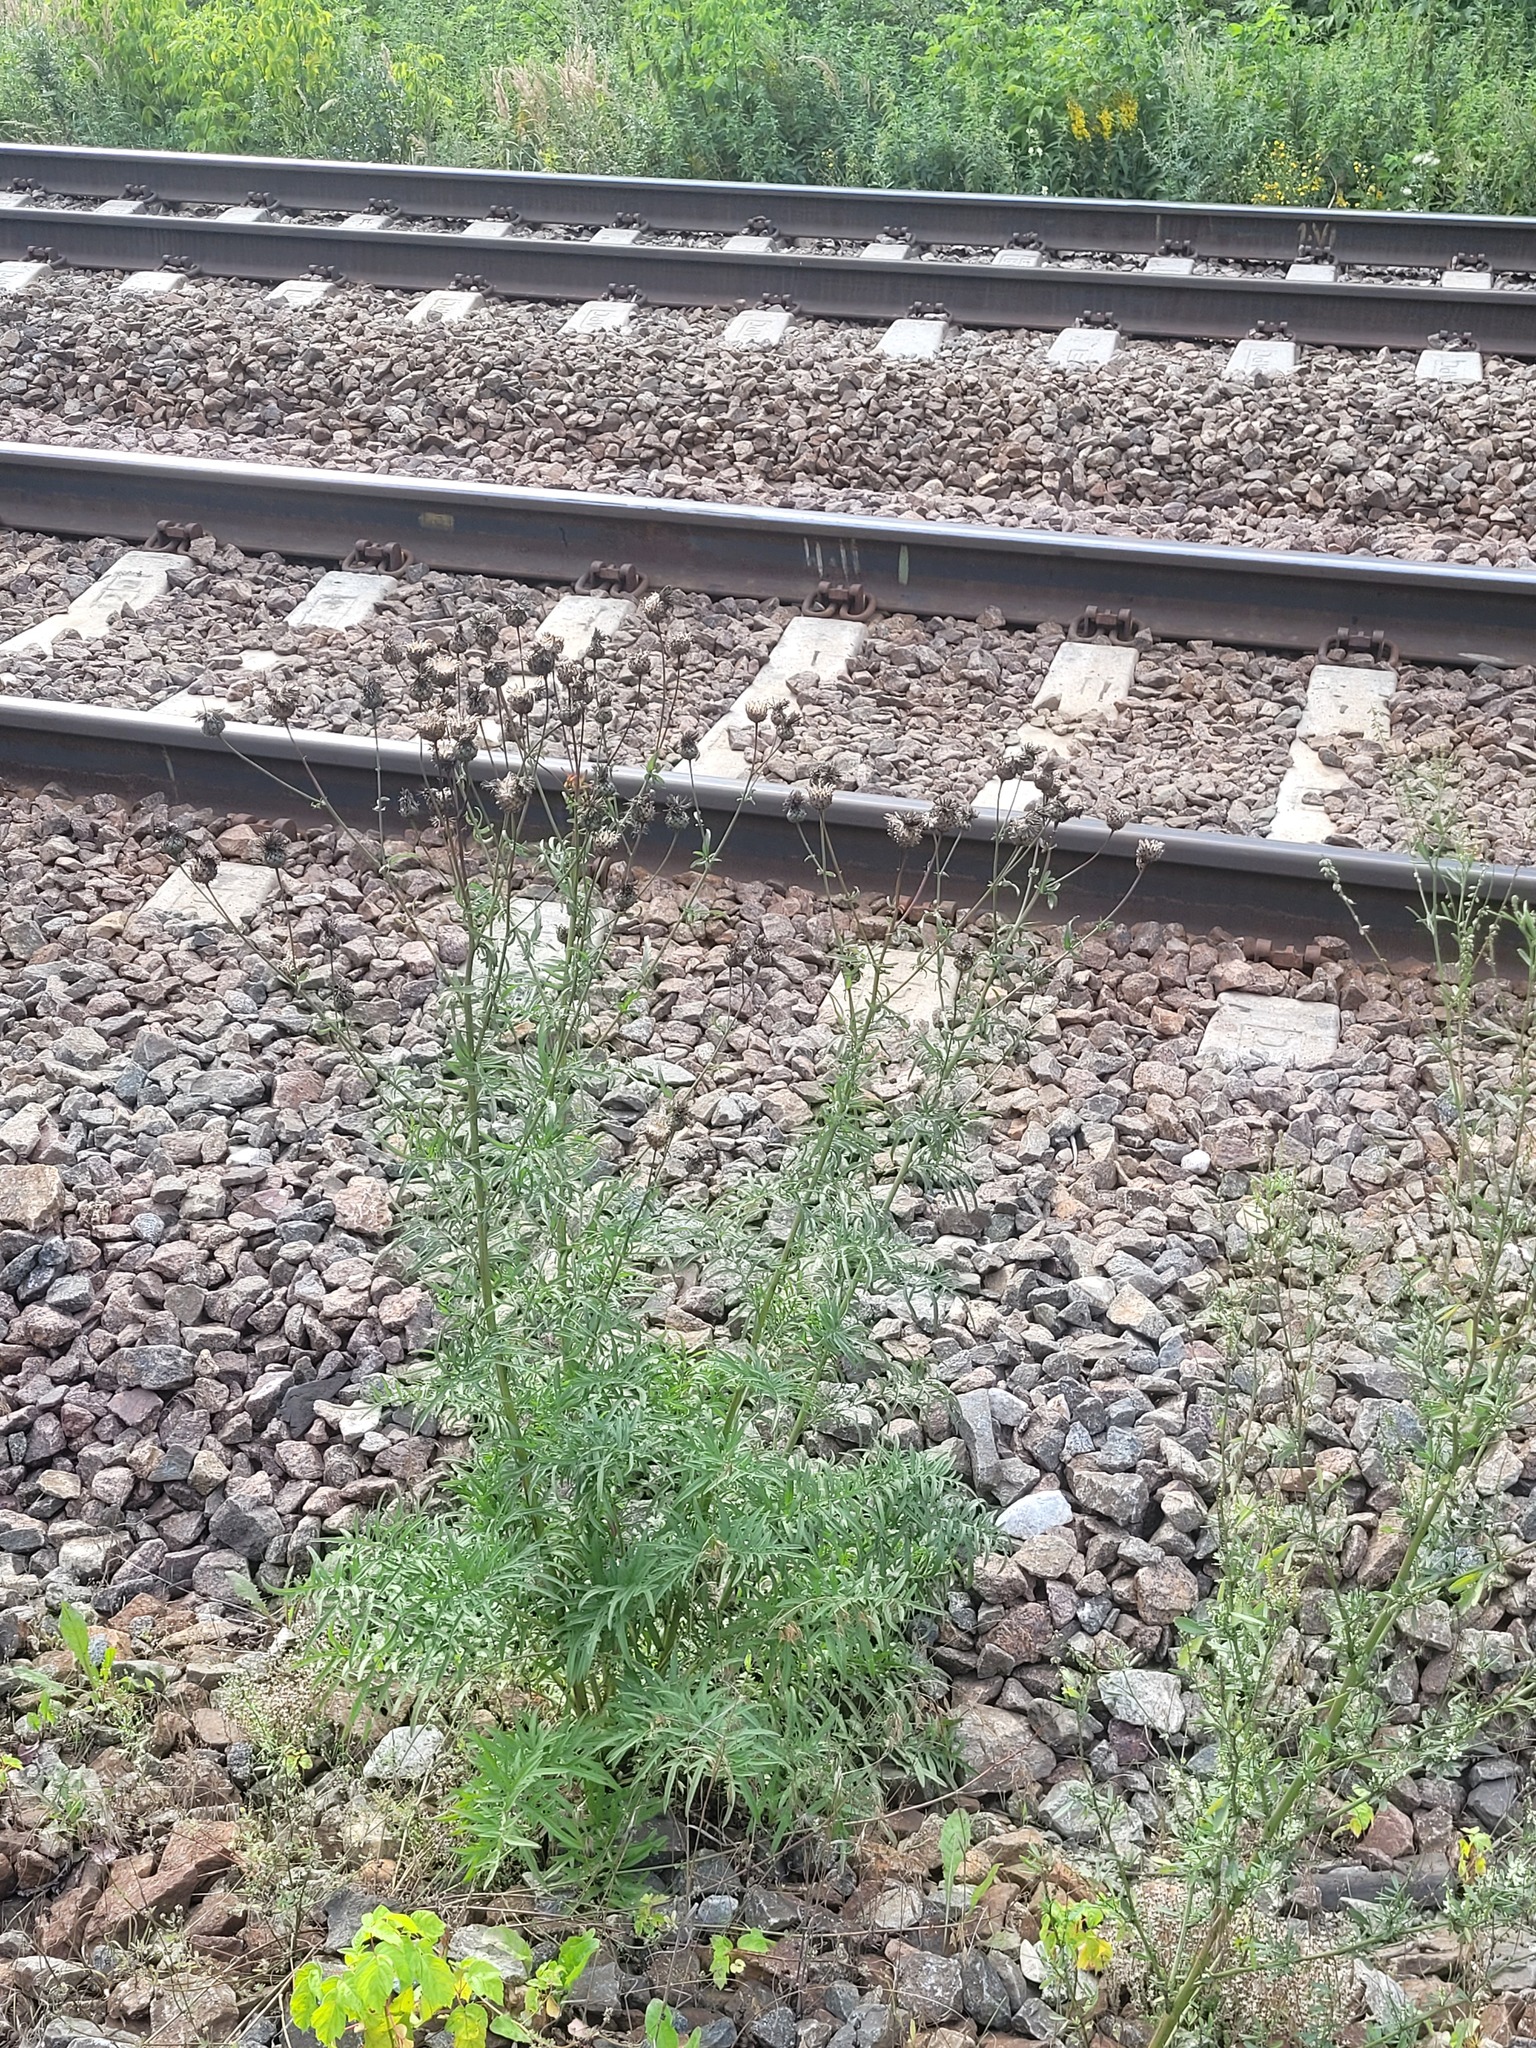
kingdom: Plantae
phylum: Tracheophyta
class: Magnoliopsida
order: Asterales
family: Asteraceae
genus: Centaurea
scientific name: Centaurea scabiosa
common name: Greater knapweed
